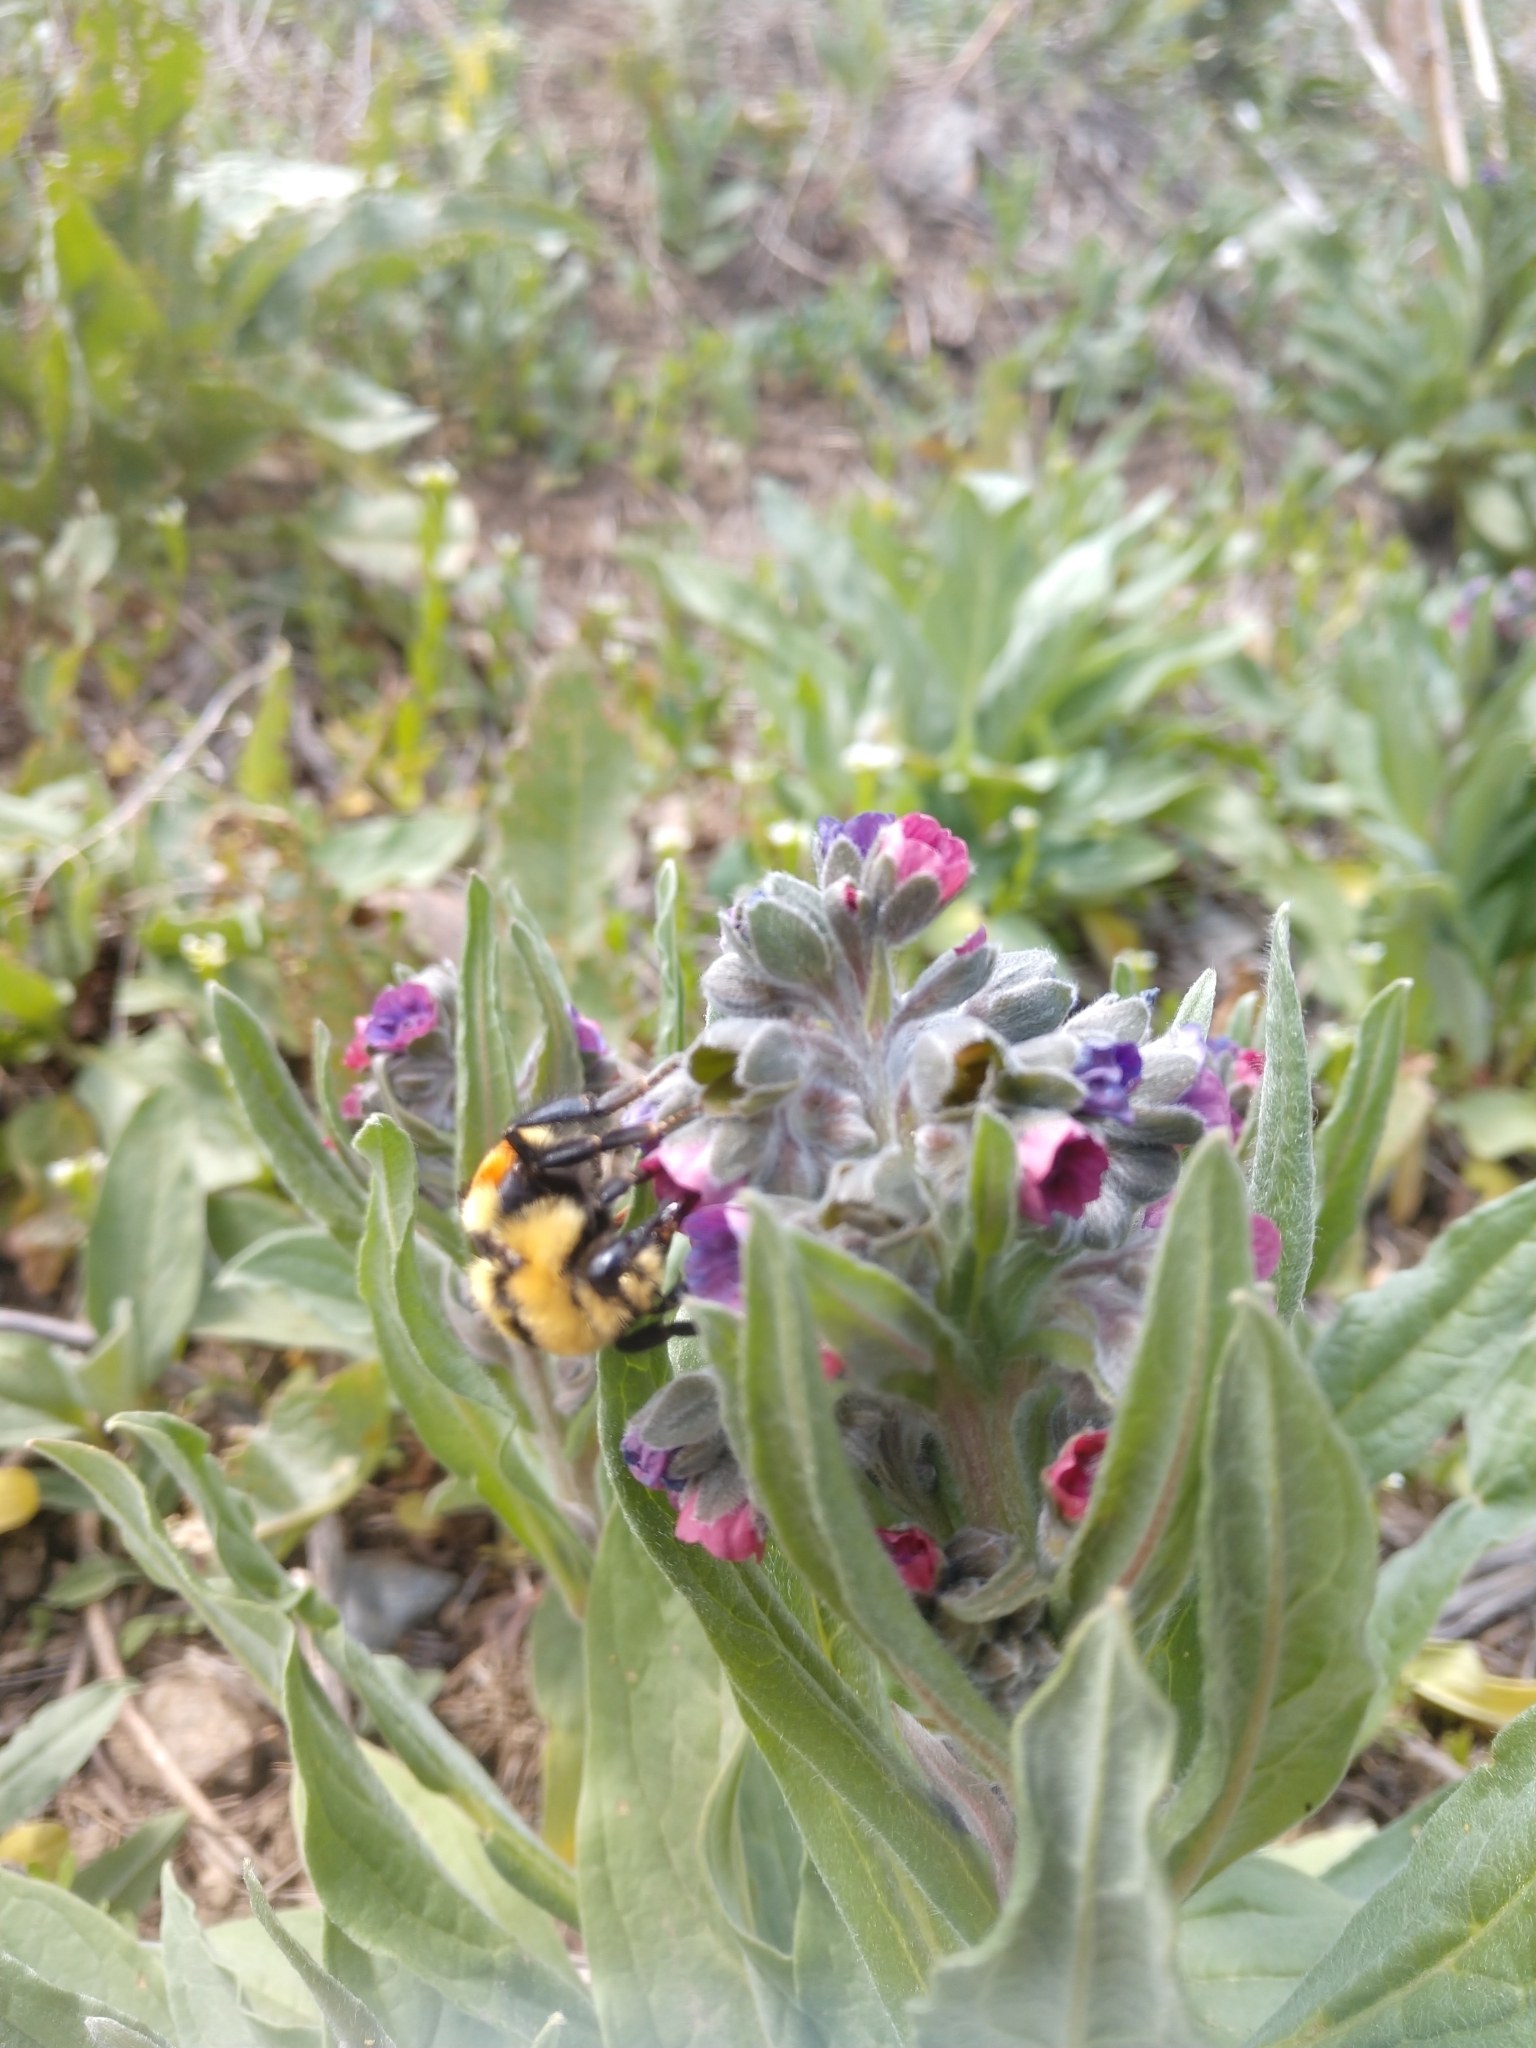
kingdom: Animalia
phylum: Arthropoda
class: Insecta
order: Hymenoptera
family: Apidae
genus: Bombus
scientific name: Bombus huntii
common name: Hunt bumble bee
